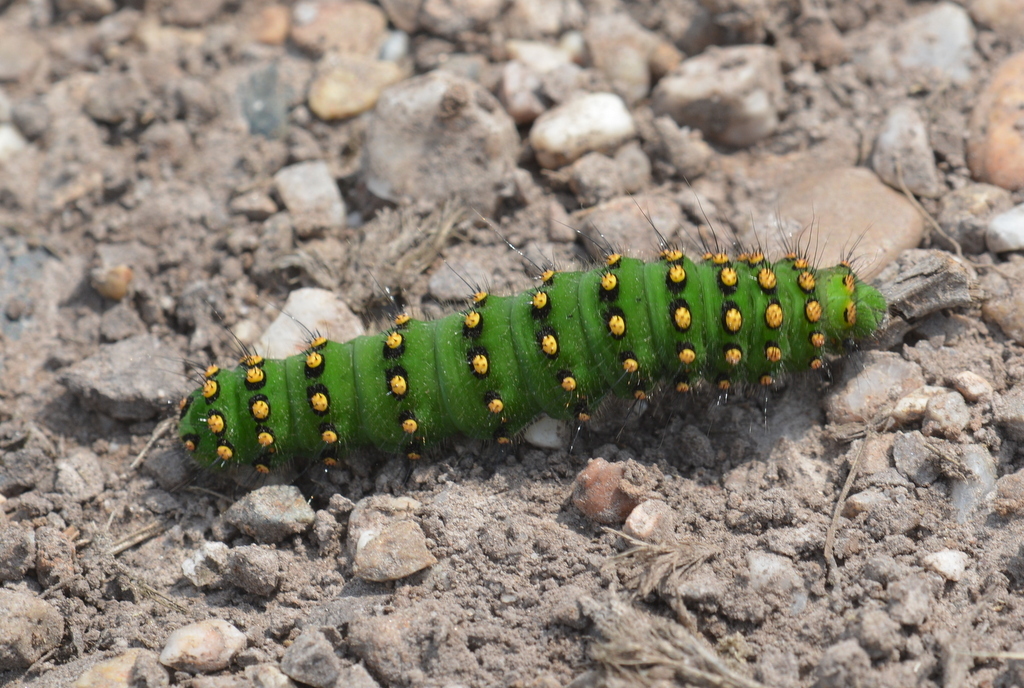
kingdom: Animalia
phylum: Arthropoda
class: Insecta
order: Lepidoptera
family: Saturniidae
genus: Saturnia
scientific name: Saturnia pavonia
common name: Emperor moth
